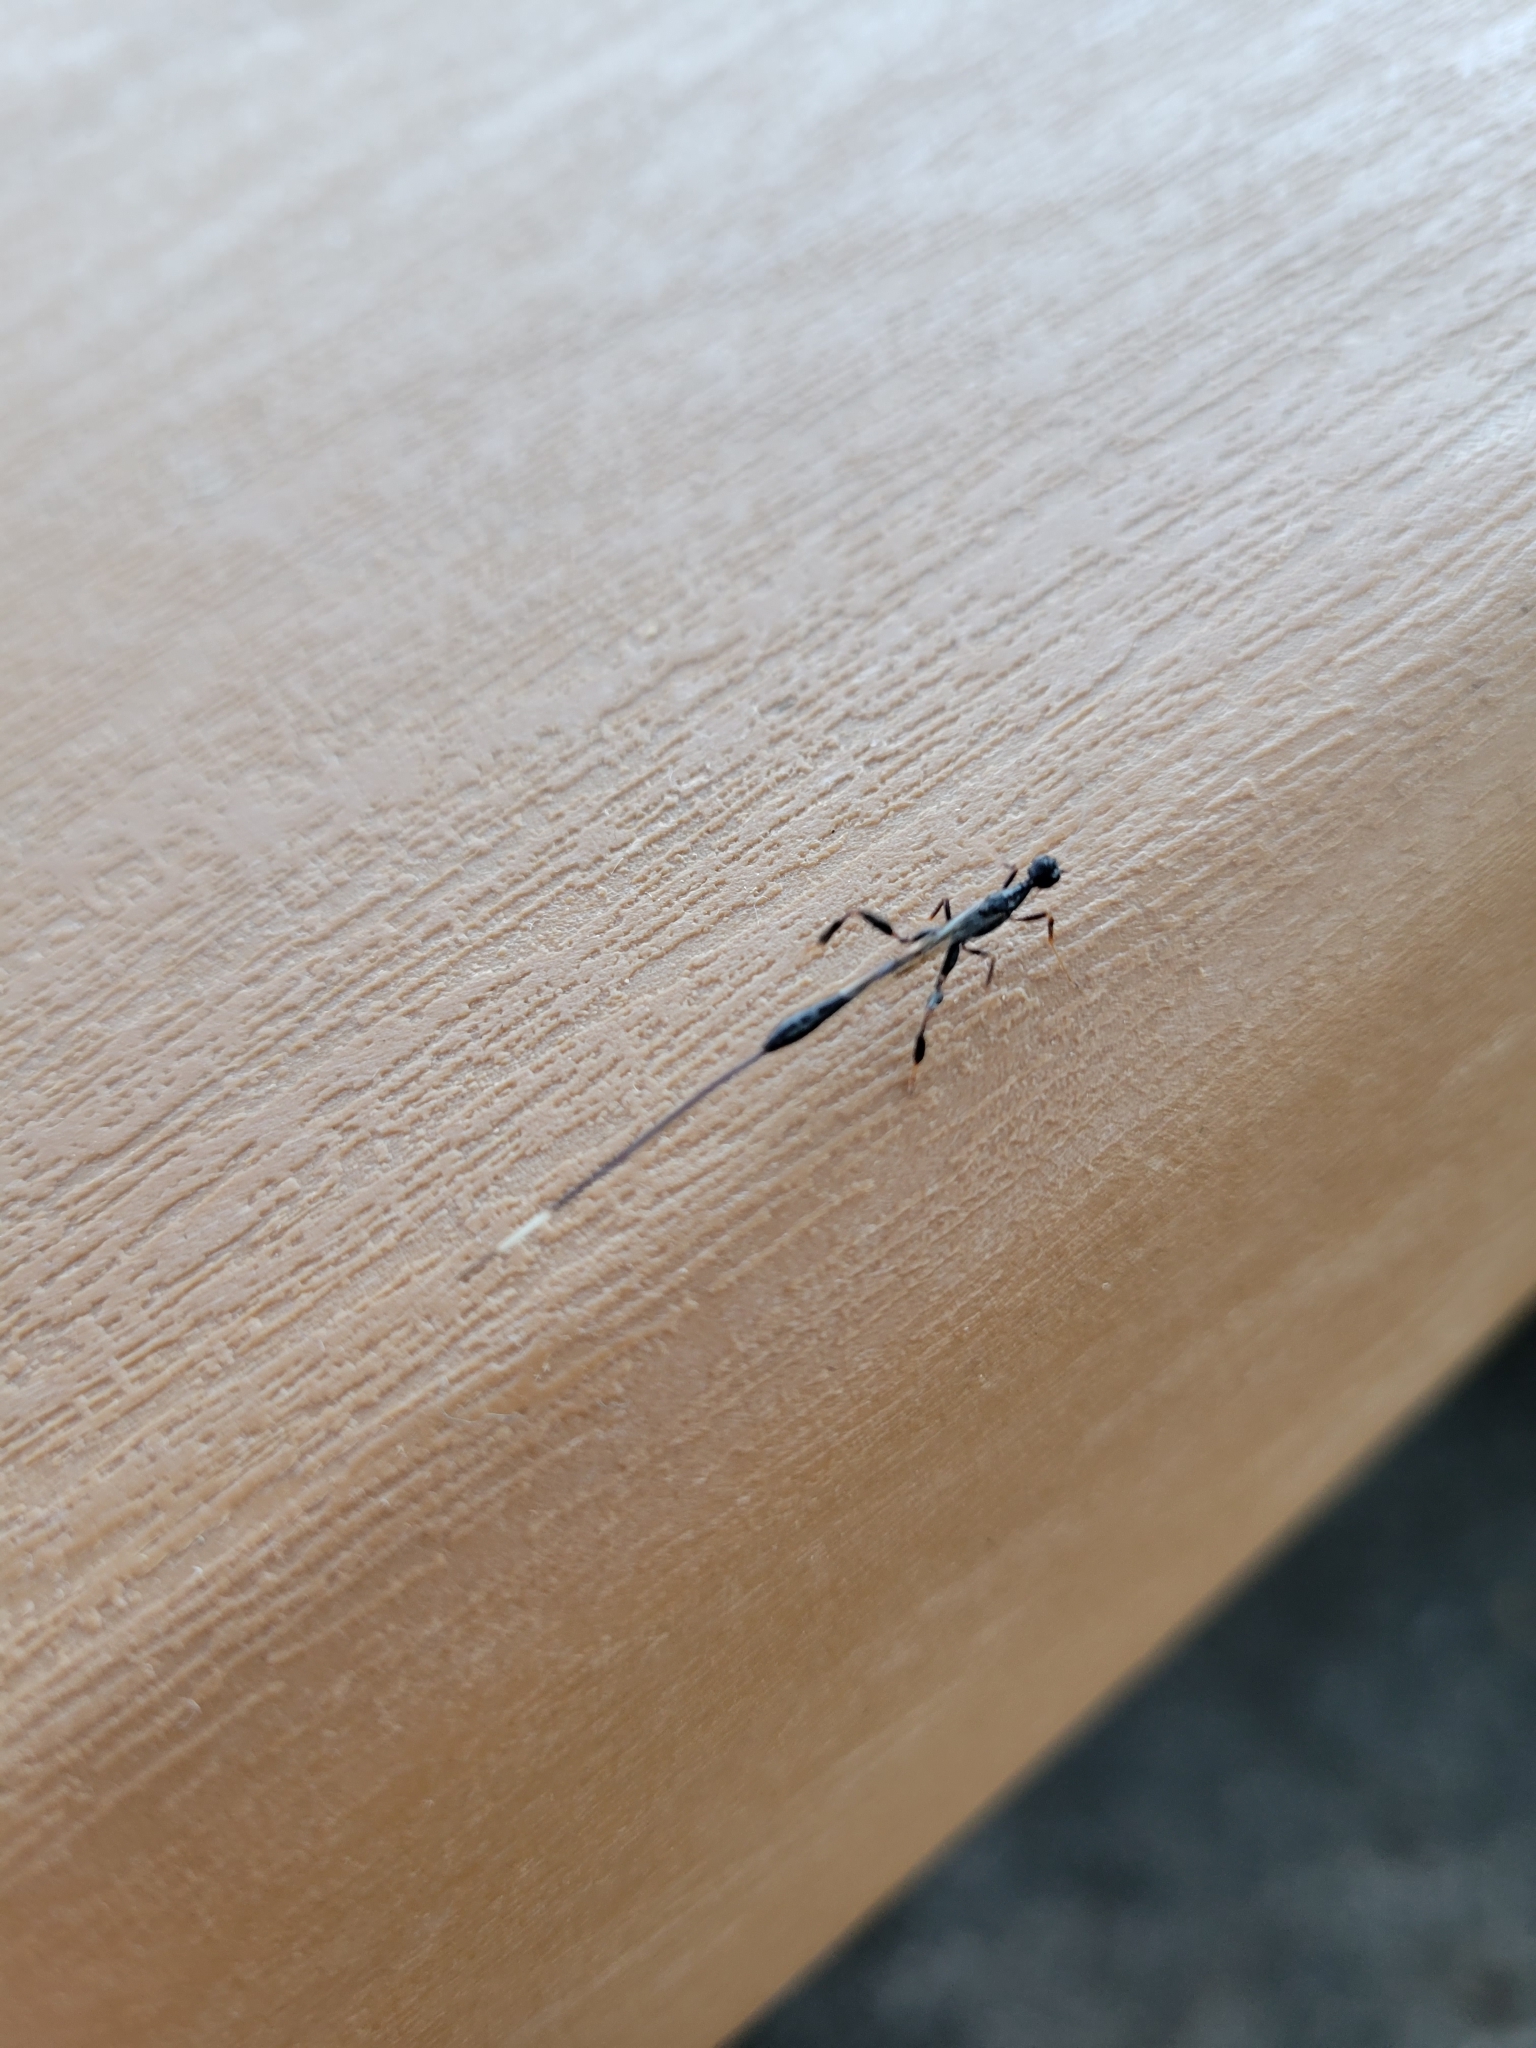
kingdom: Animalia
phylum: Arthropoda
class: Insecta
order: Hymenoptera
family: Stephanidae
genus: Megischus
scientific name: Megischus
